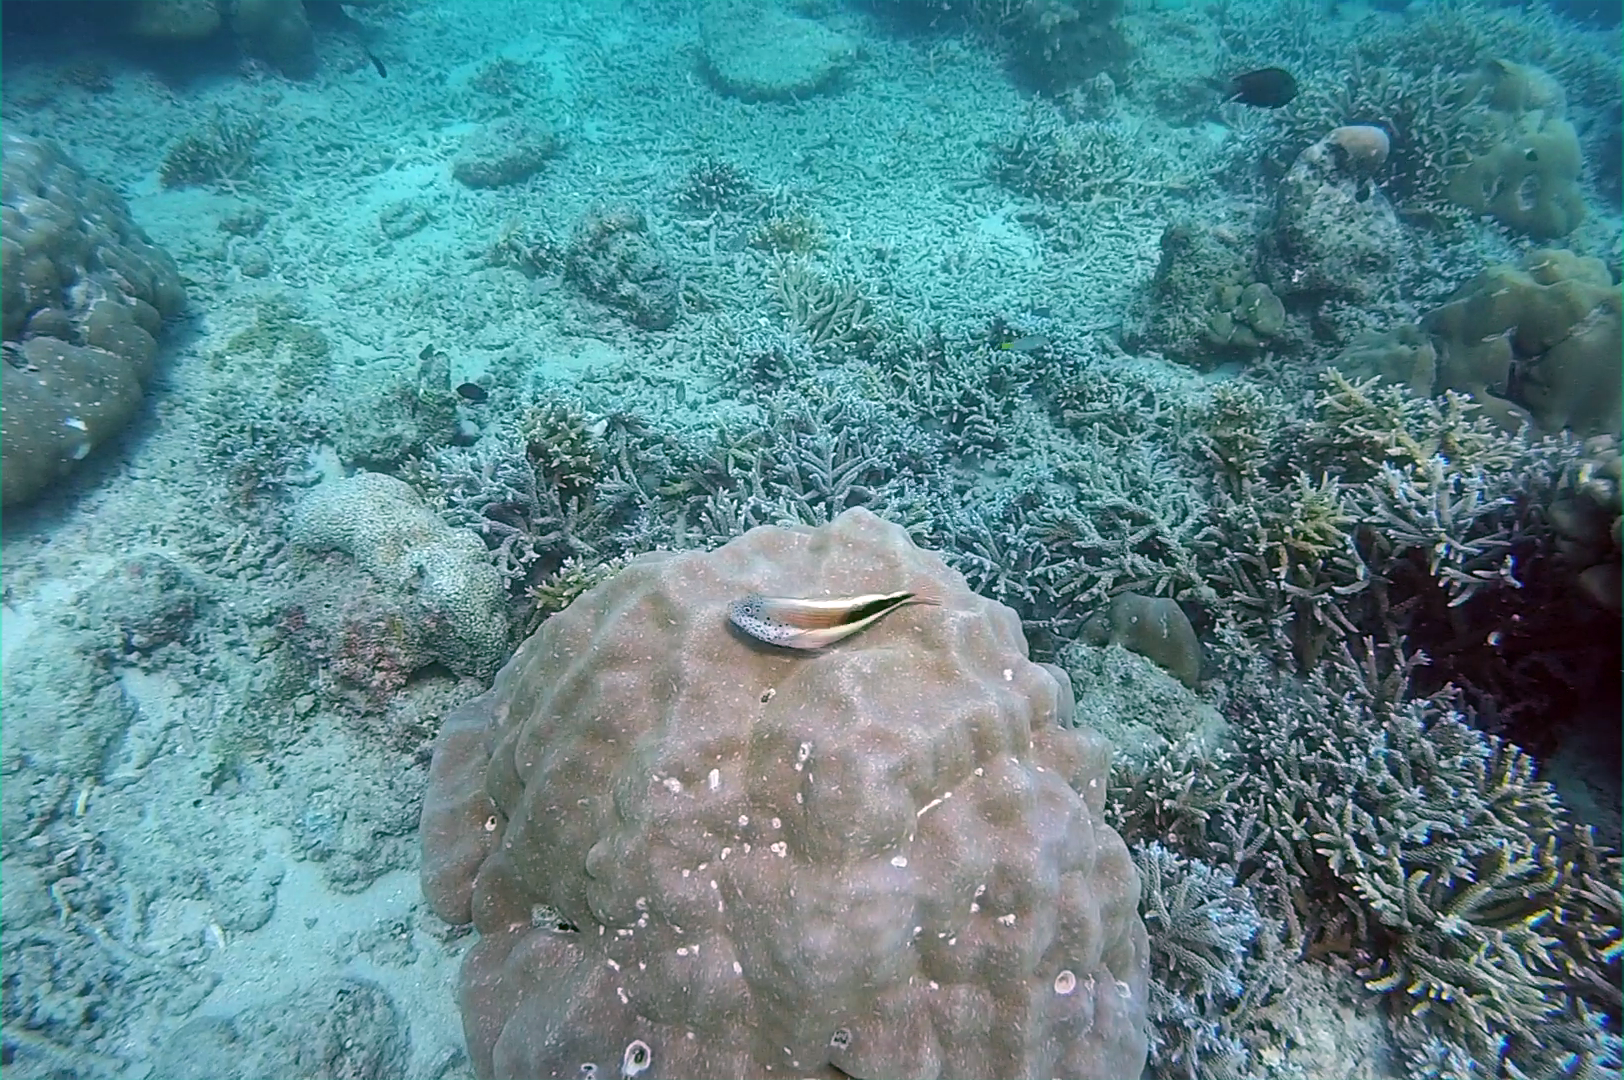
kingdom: Animalia
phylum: Chordata
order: Perciformes
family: Cirrhitidae
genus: Paracirrhites
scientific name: Paracirrhites forsteri
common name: Freckled hawkfish
